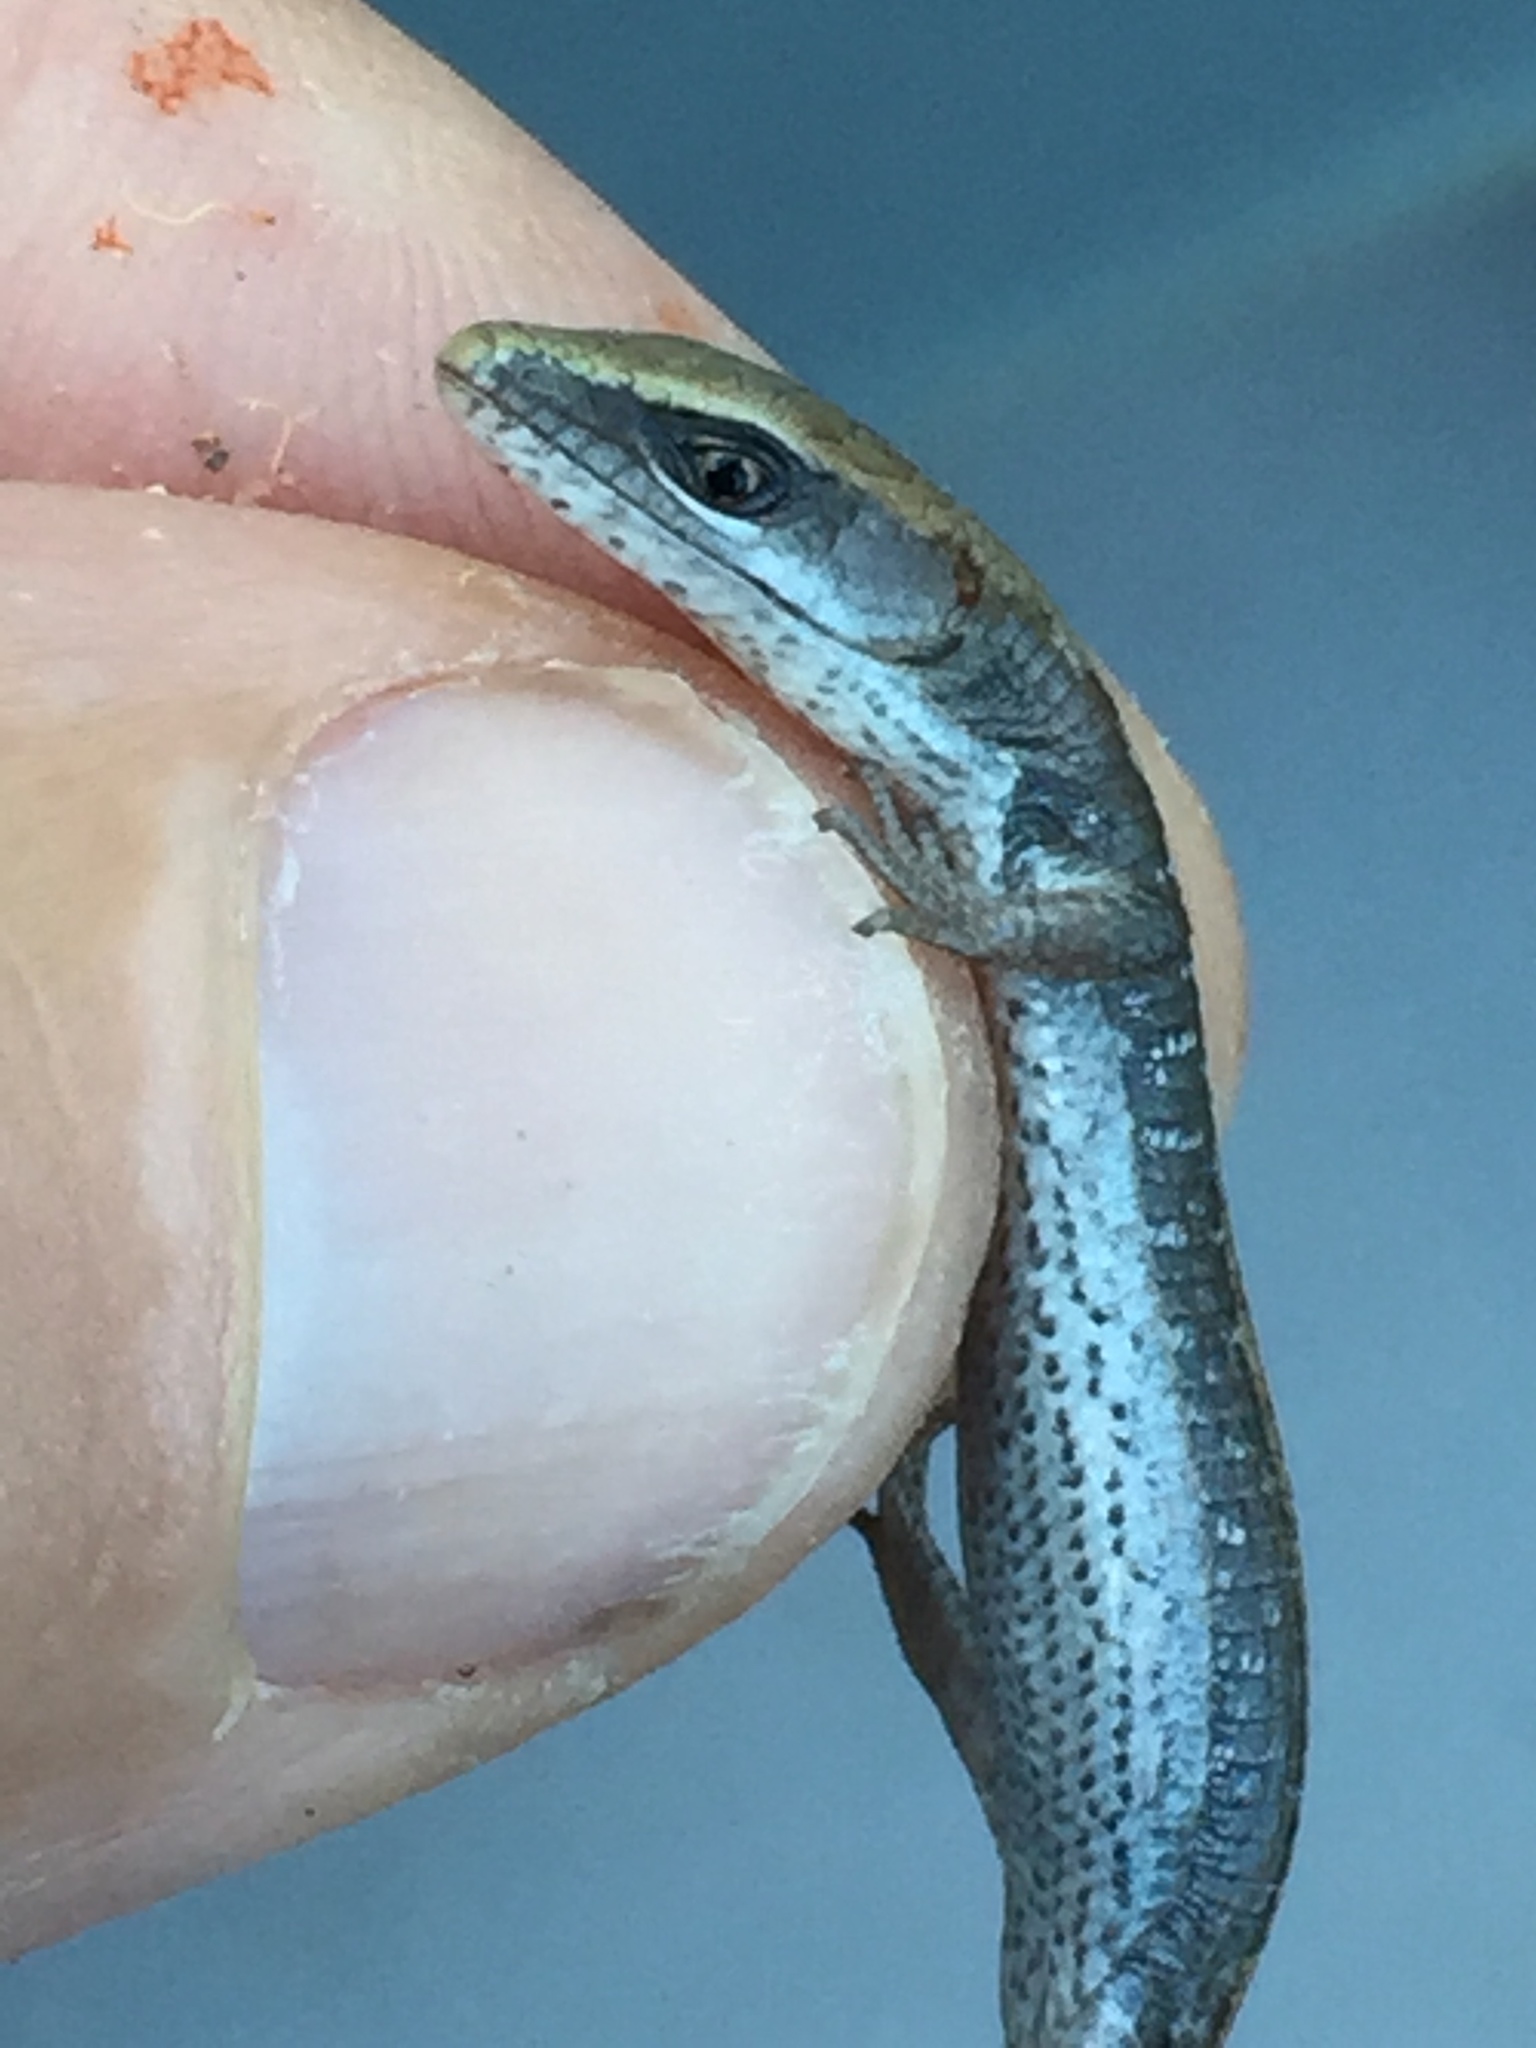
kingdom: Animalia
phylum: Chordata
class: Squamata
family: Anguidae
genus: Elgaria
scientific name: Elgaria multicarinata
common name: Southern alligator lizard
